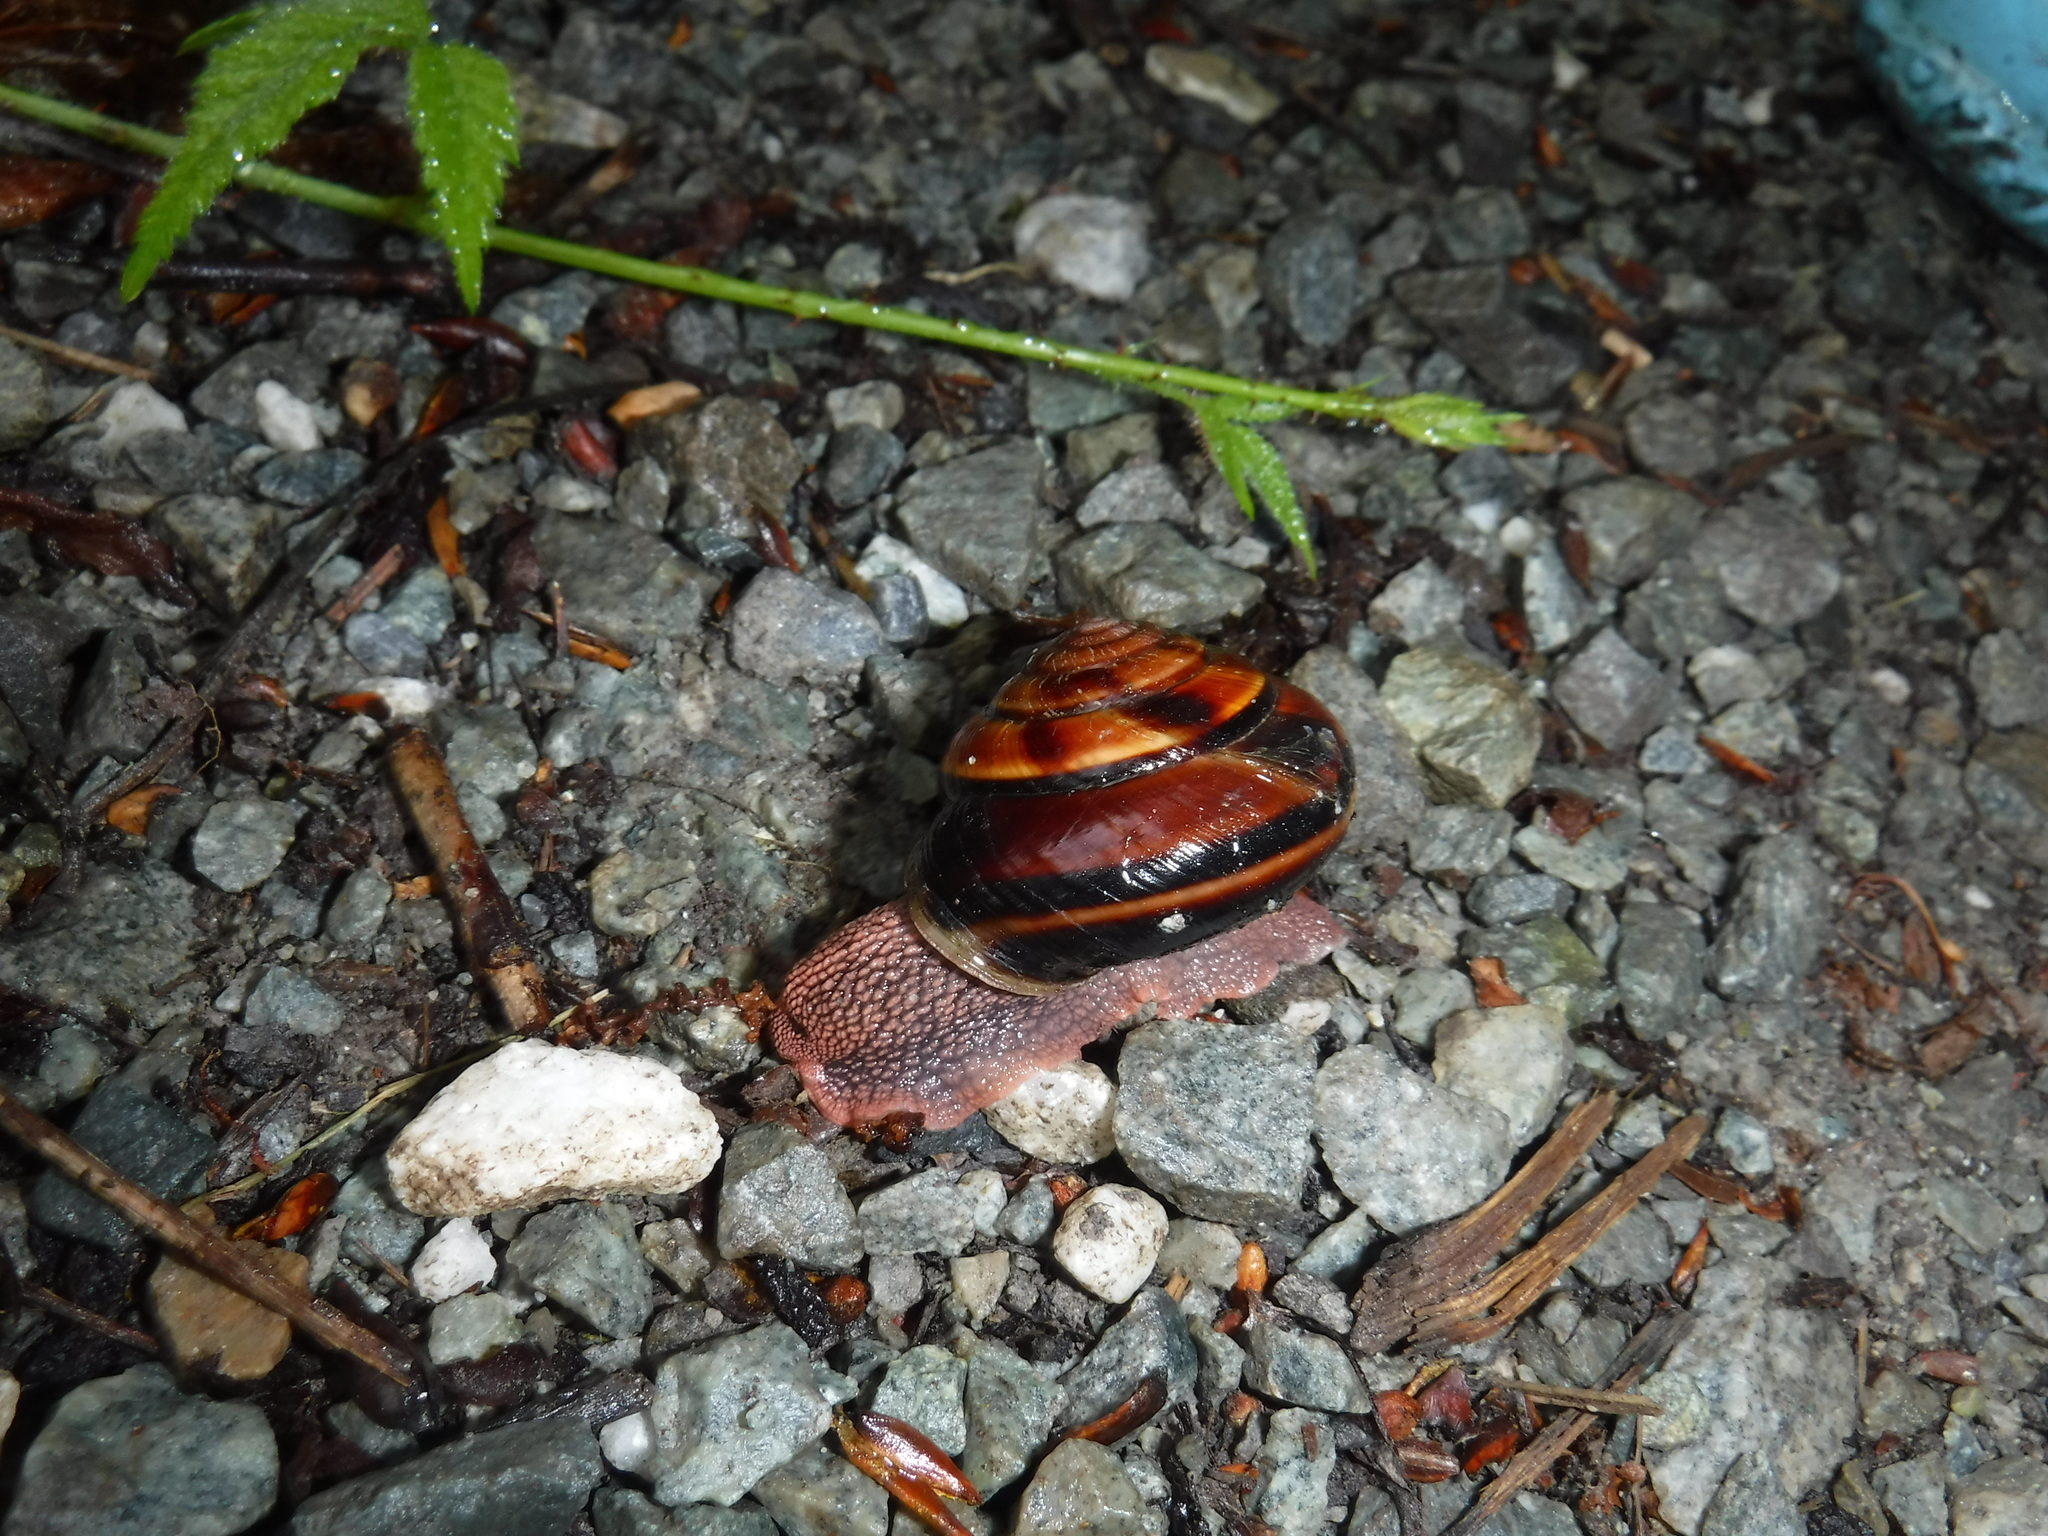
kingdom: Animalia
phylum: Mollusca
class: Gastropoda
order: Stylommatophora
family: Xanthonychidae
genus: Monadenia
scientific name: Monadenia fidelis
